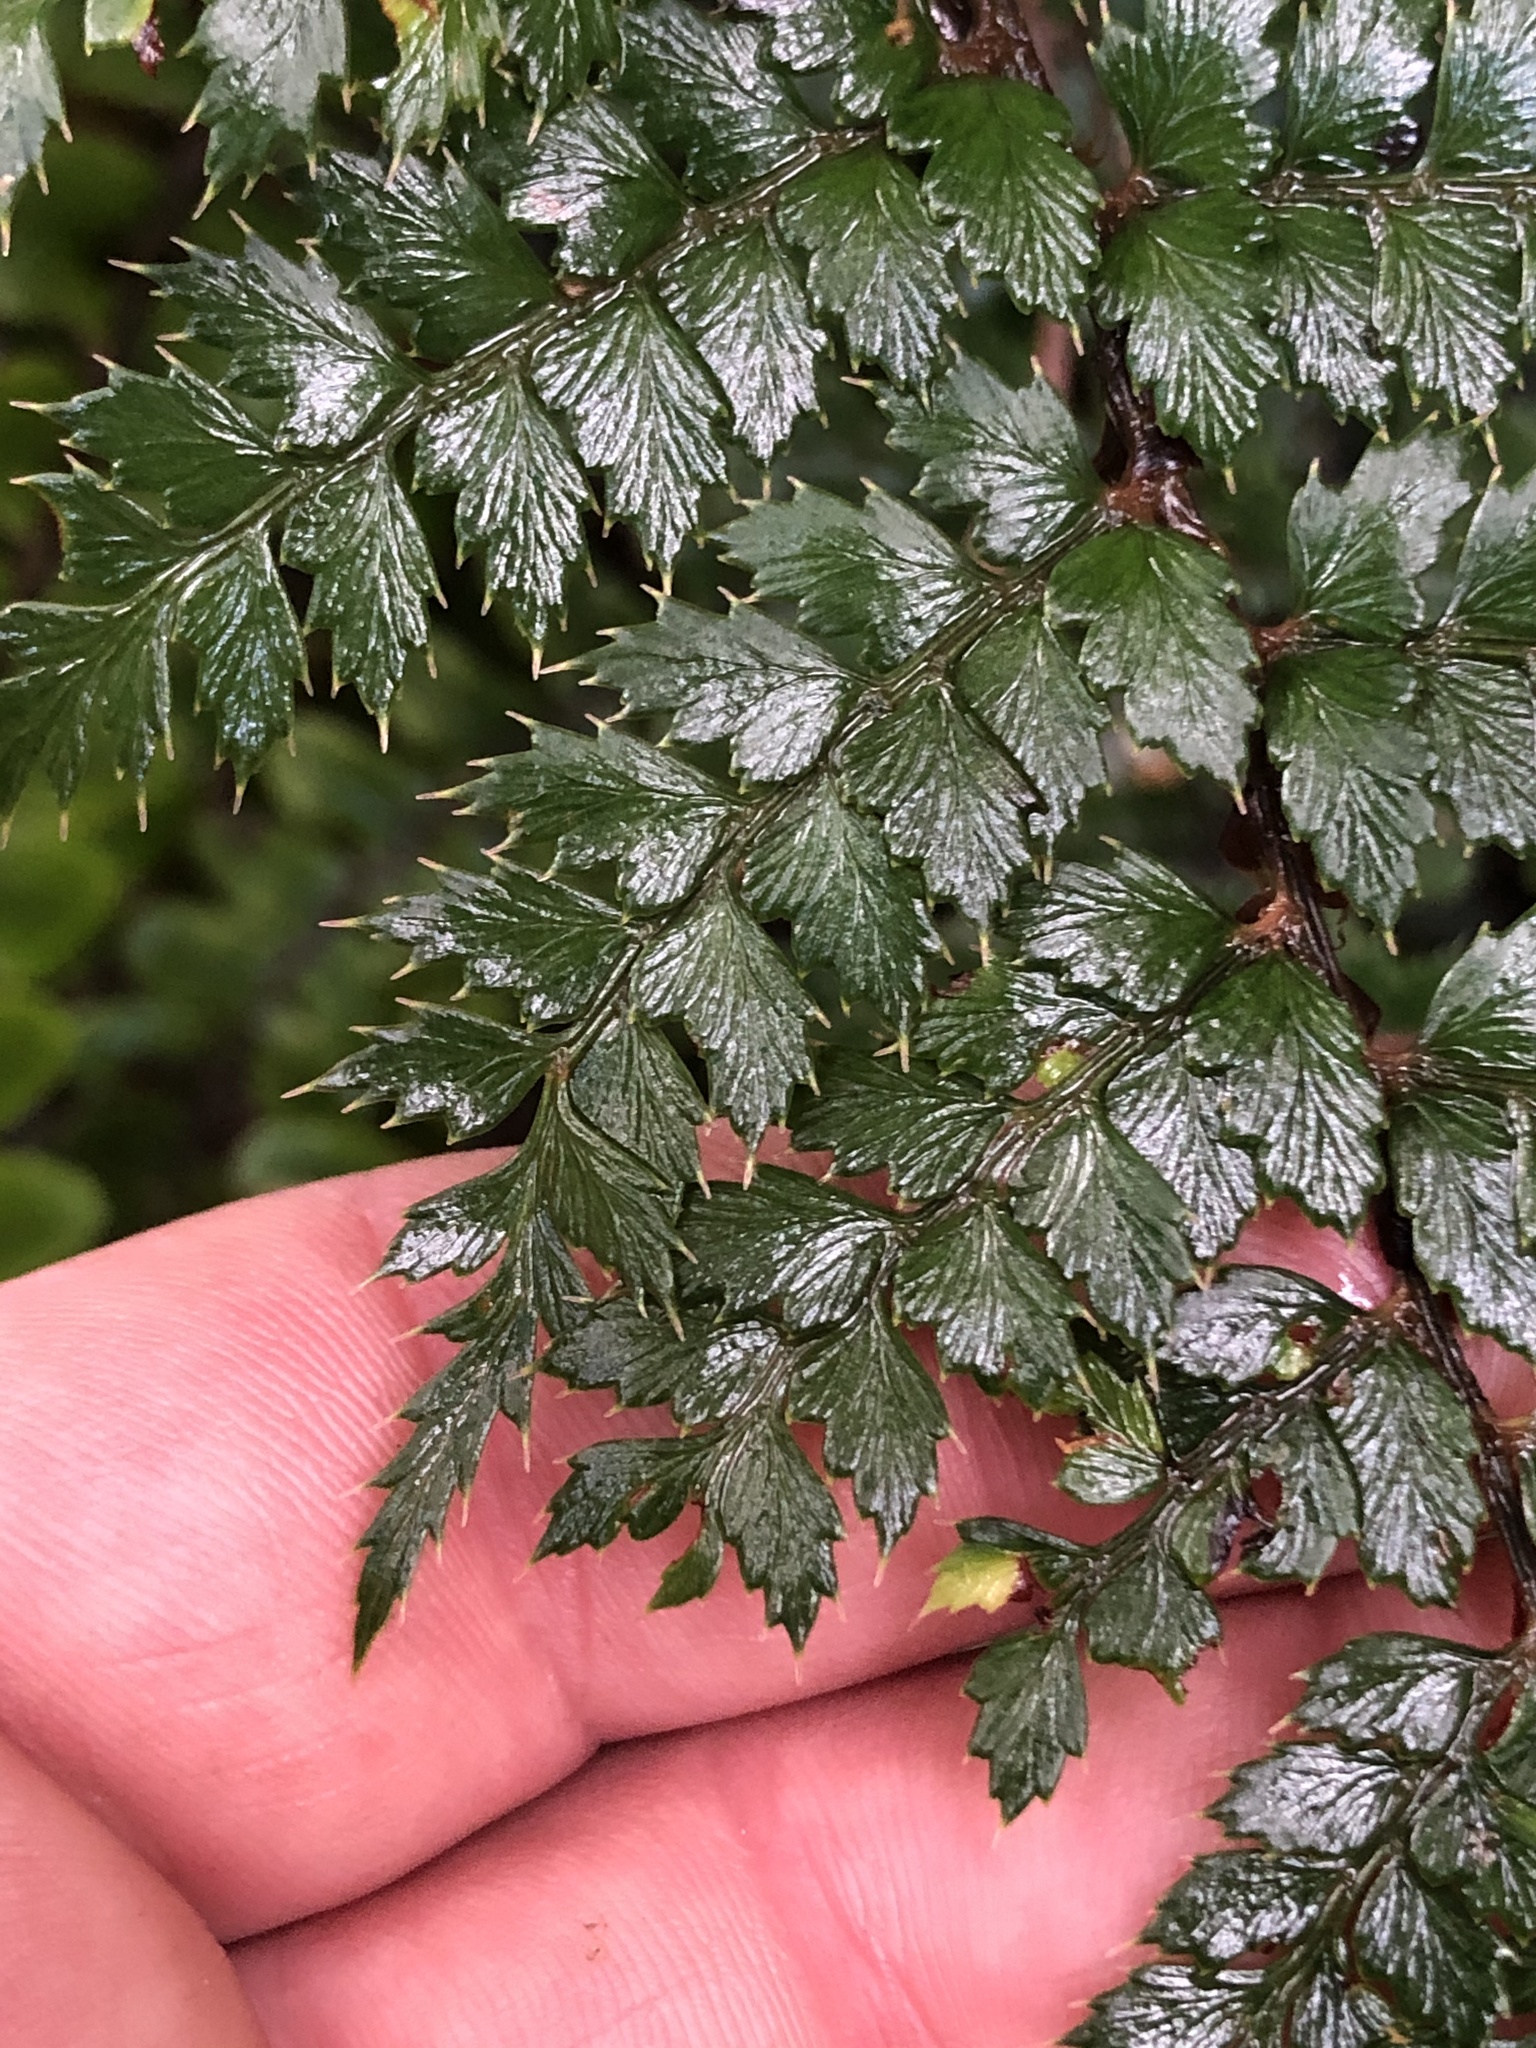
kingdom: Plantae
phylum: Tracheophyta
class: Polypodiopsida
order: Polypodiales
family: Dryopteridaceae
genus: Polystichum
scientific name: Polystichum vestitum
